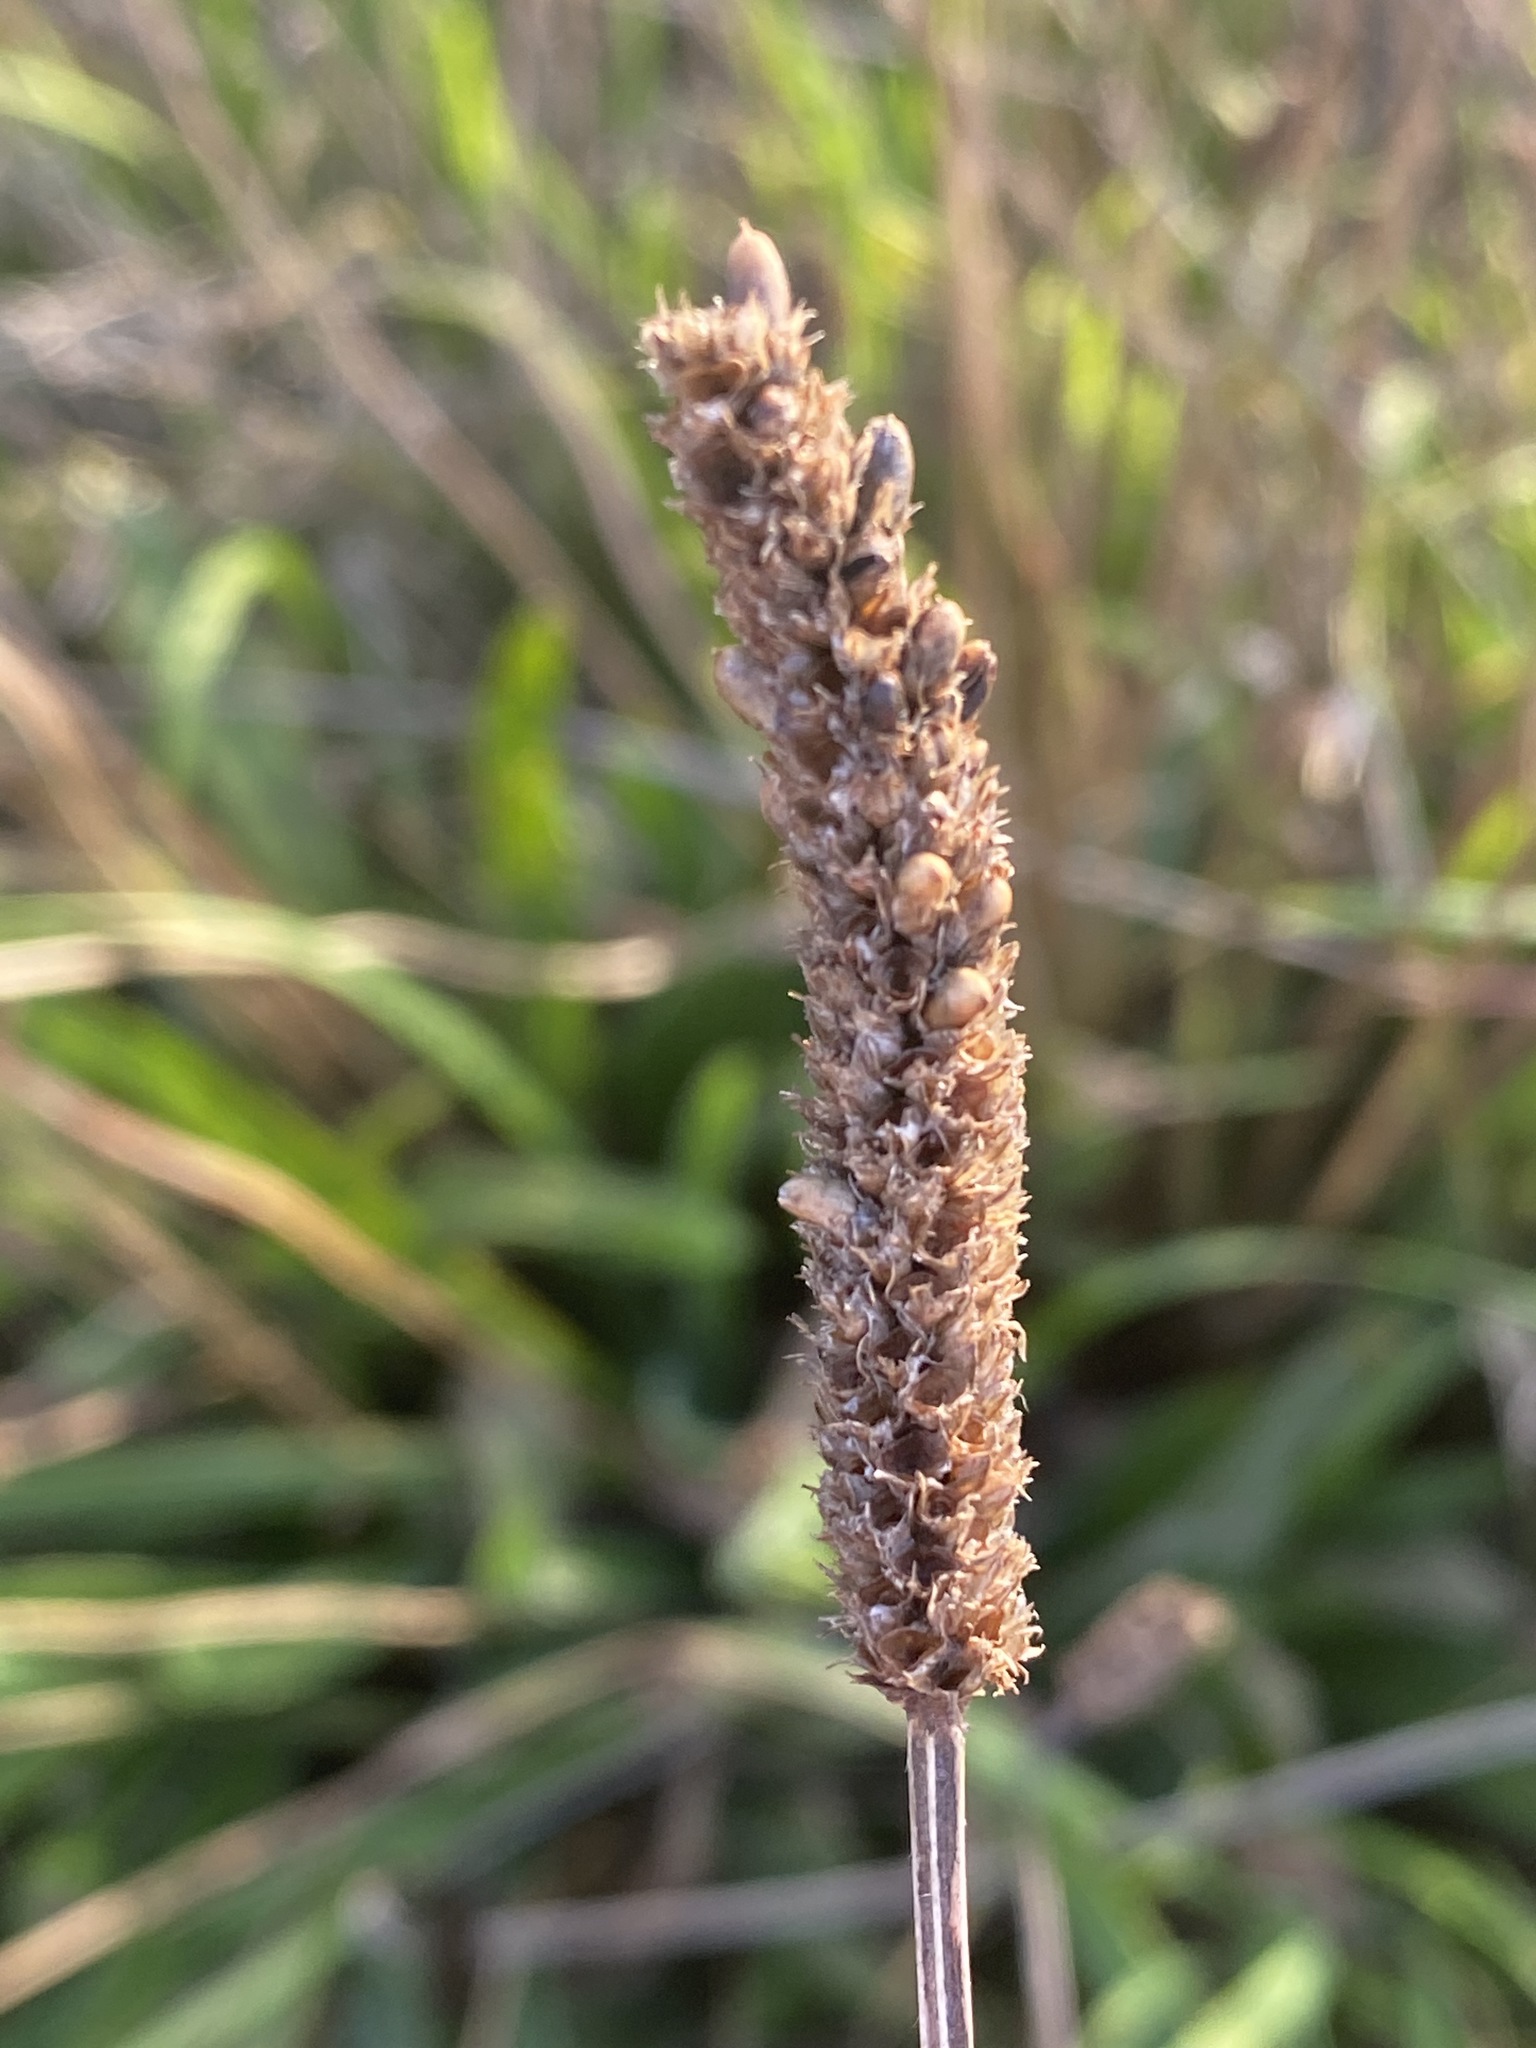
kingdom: Plantae
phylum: Tracheophyta
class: Magnoliopsida
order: Lamiales
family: Plantaginaceae
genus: Plantago
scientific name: Plantago lanceolata
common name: Ribwort plantain
